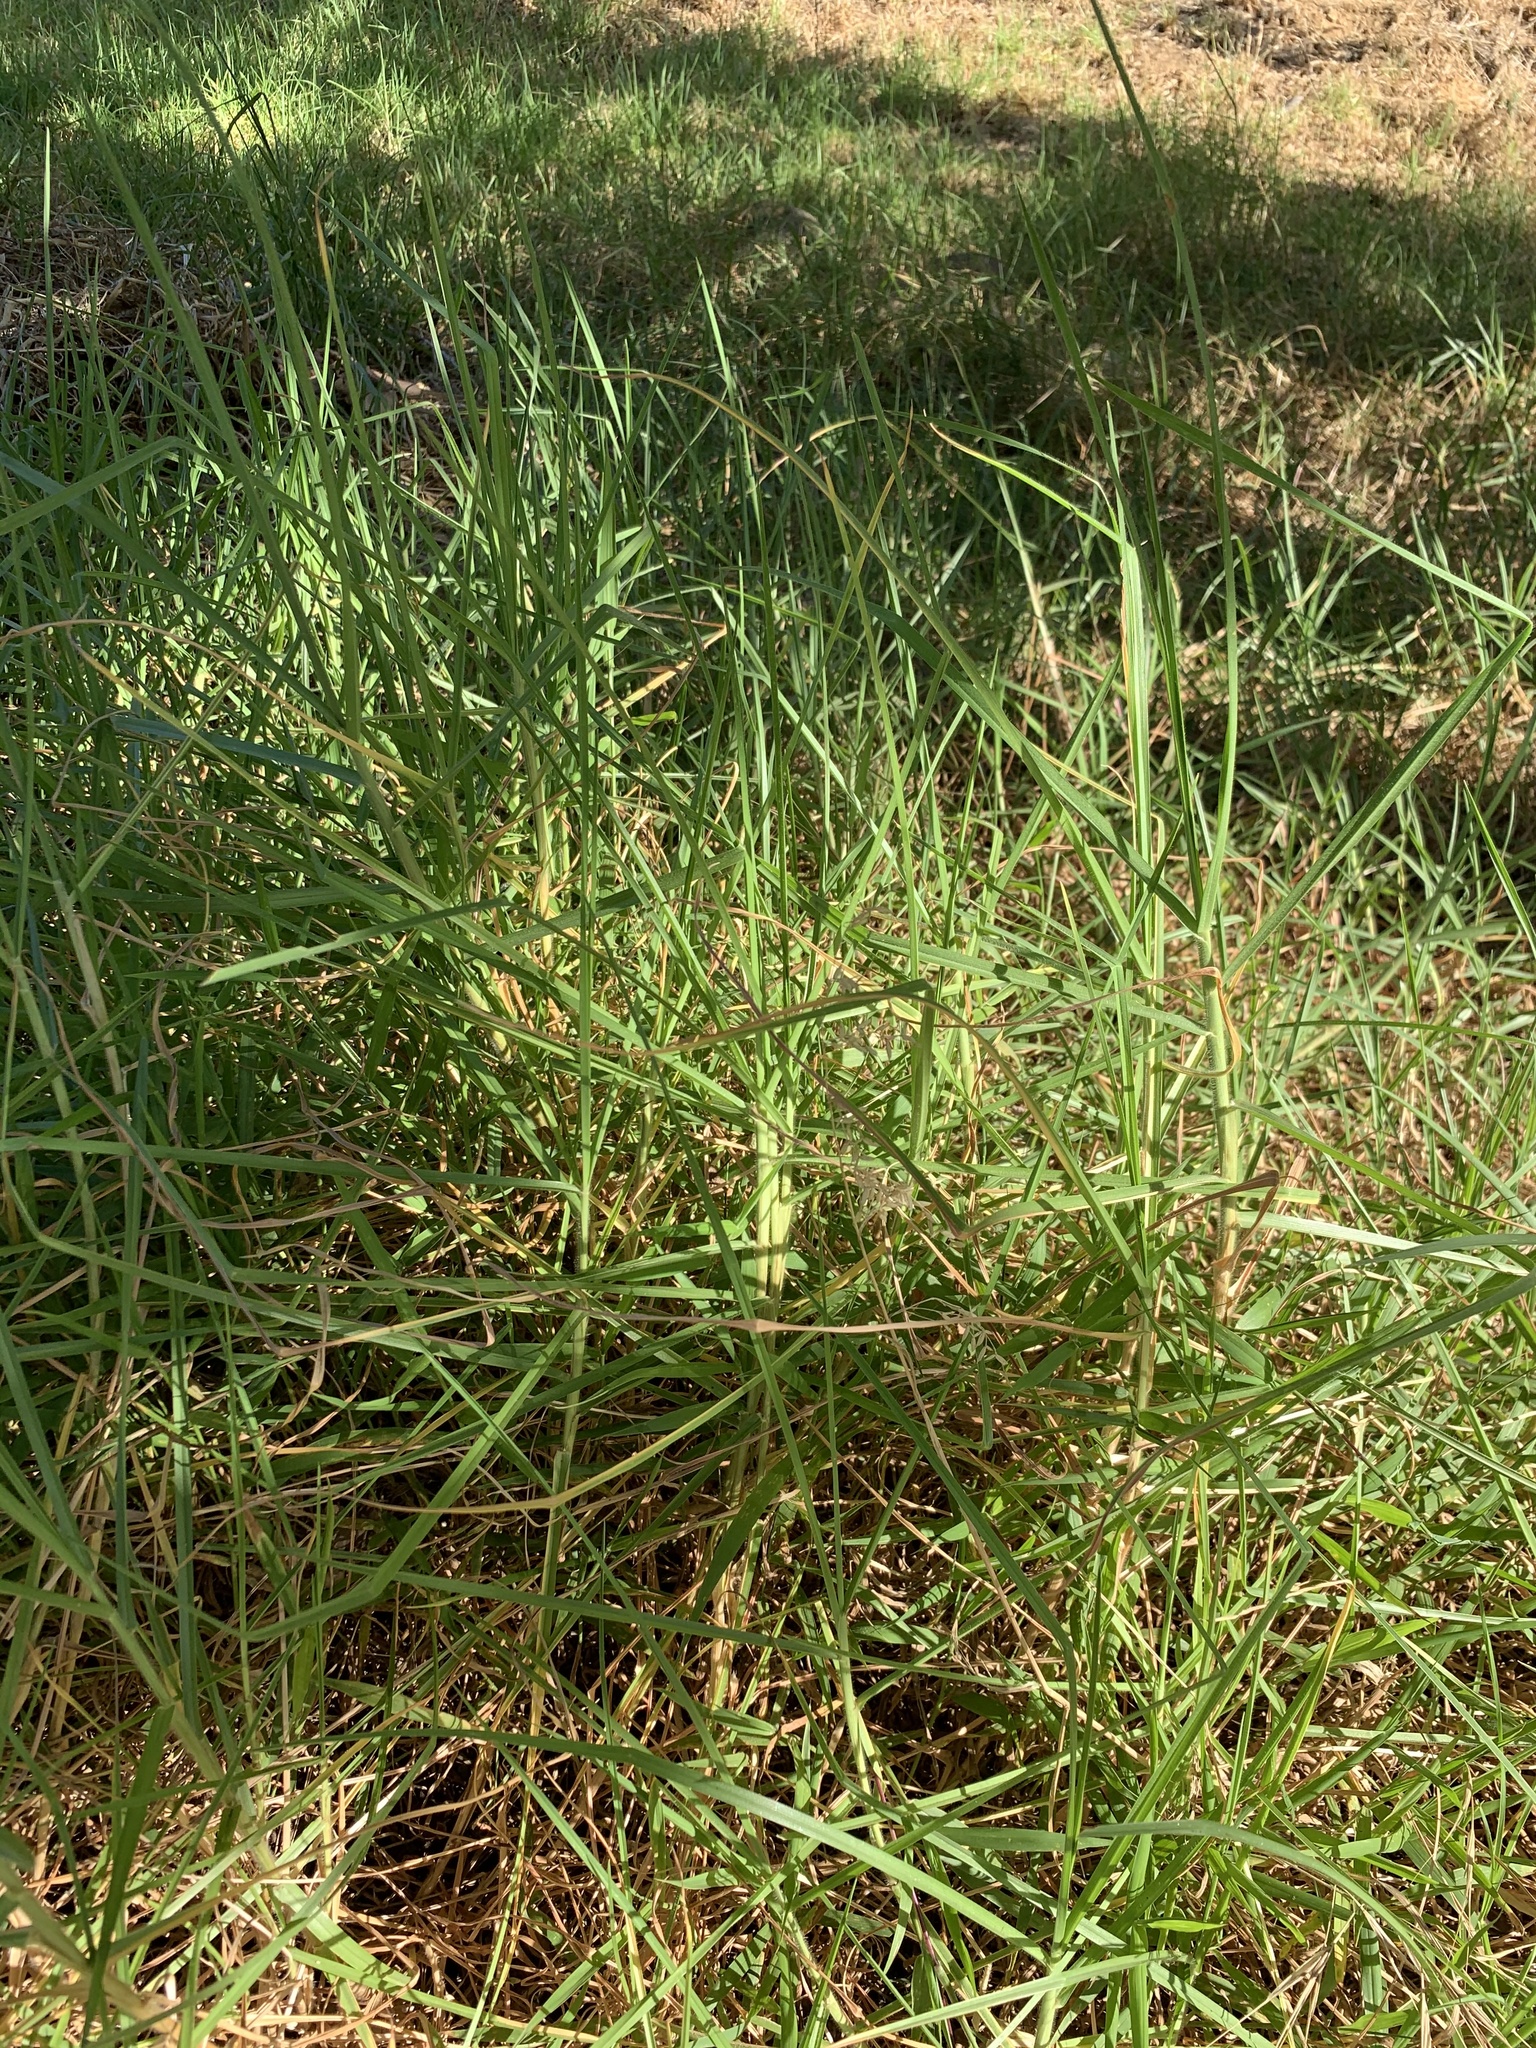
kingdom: Plantae
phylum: Tracheophyta
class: Liliopsida
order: Poales
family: Poaceae
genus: Cenchrus
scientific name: Cenchrus clandestinus
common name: Kikuyugrass
